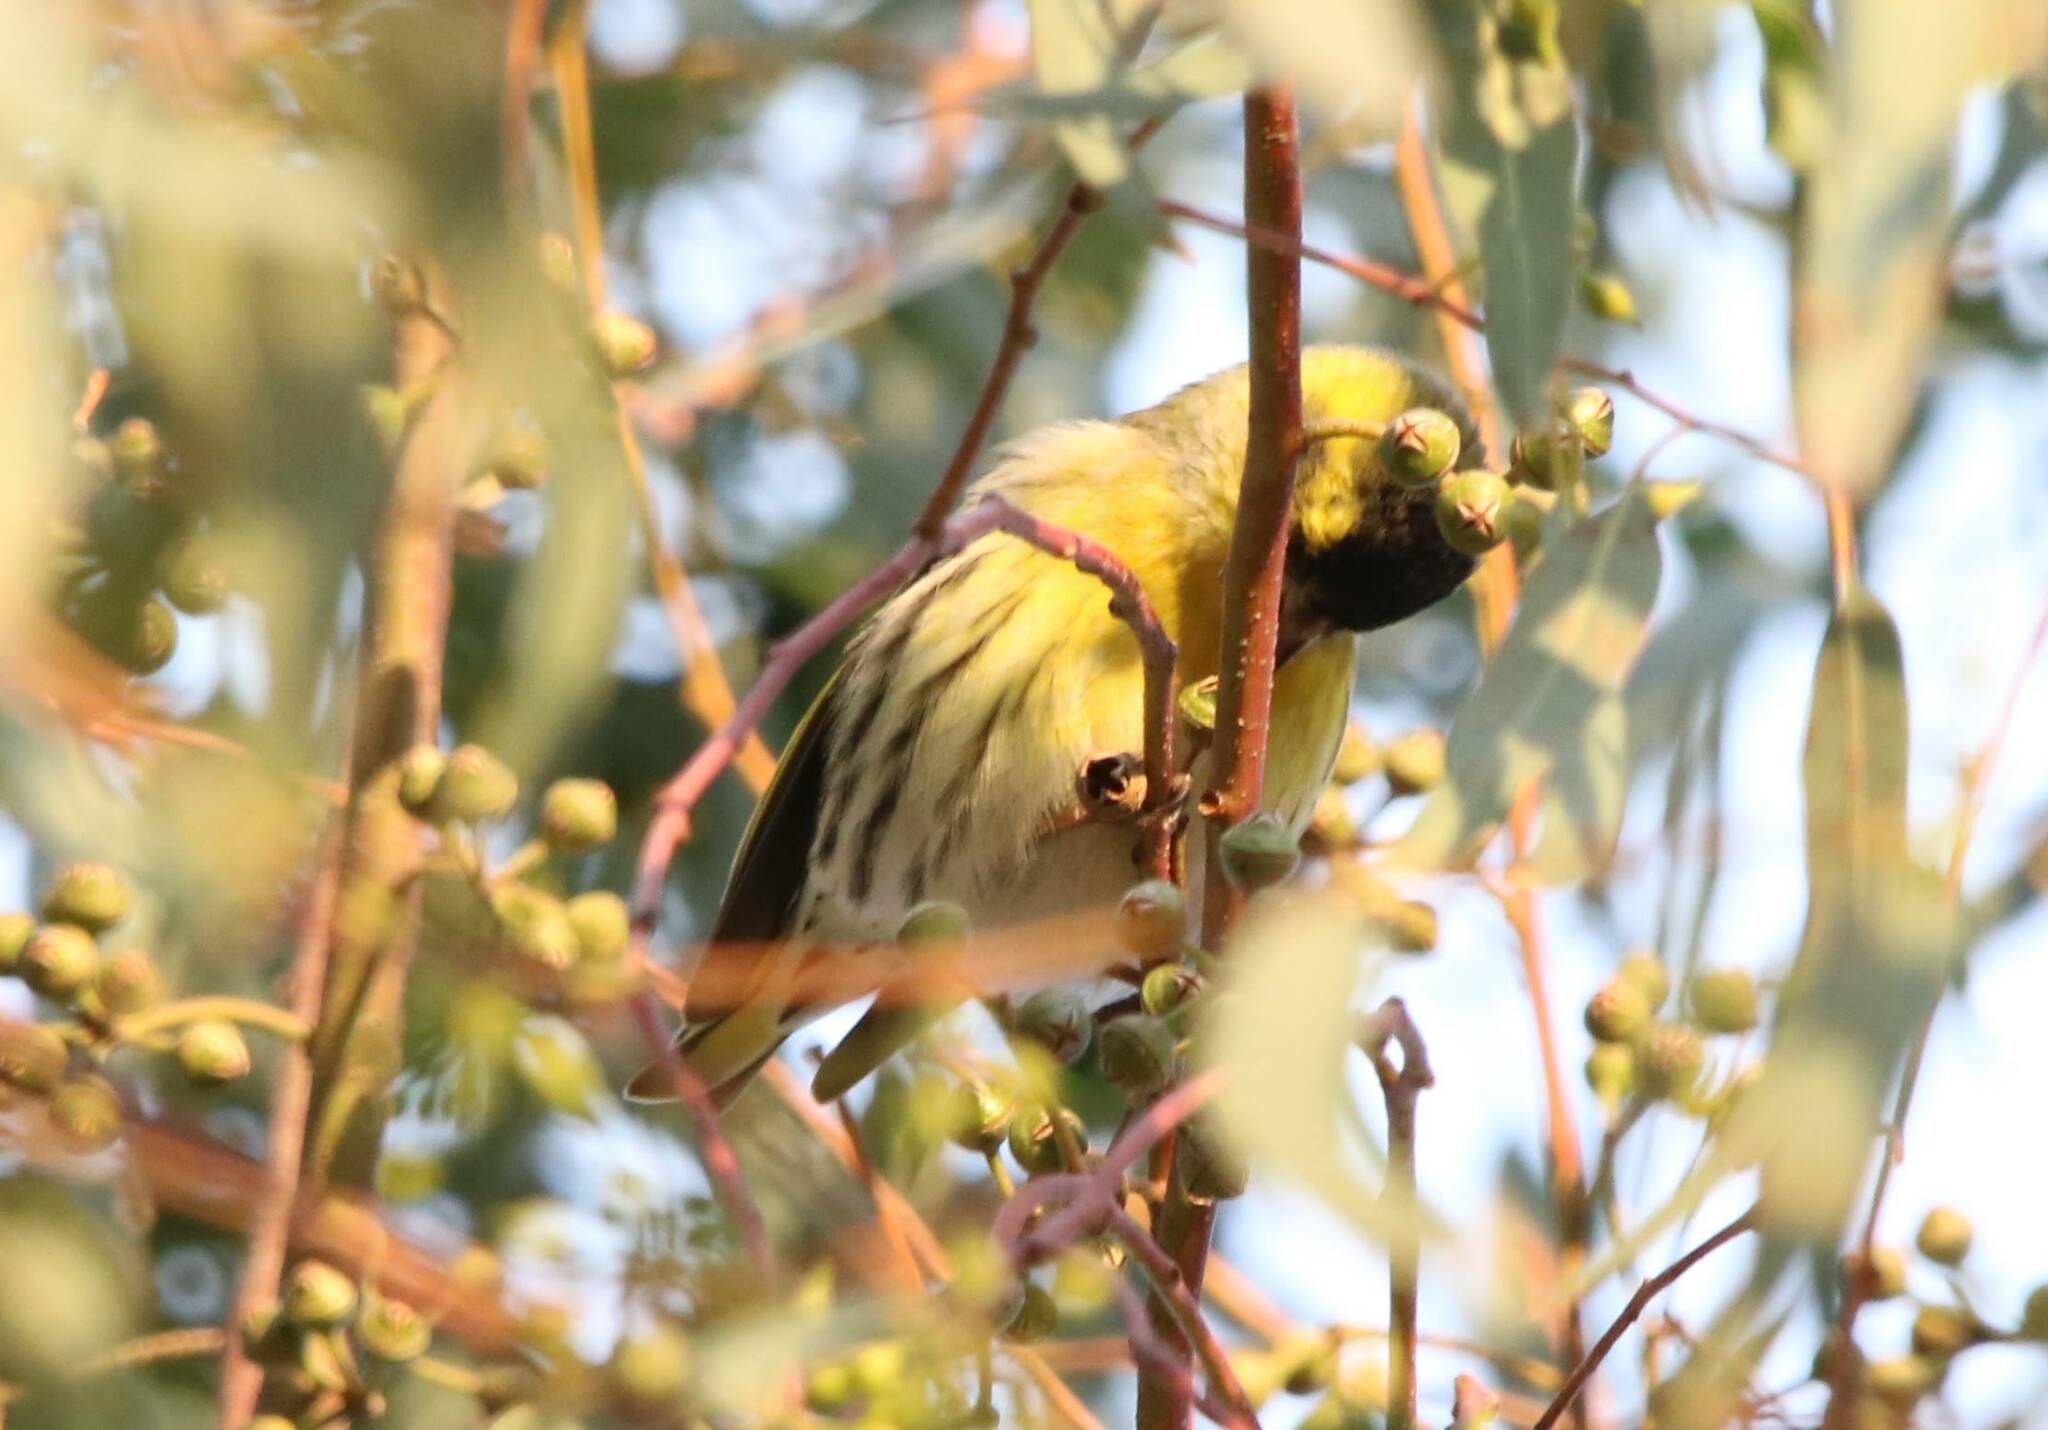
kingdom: Animalia
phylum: Chordata
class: Aves
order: Passeriformes
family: Fringillidae
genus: Spinus
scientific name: Spinus spinus
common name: Eurasian siskin
